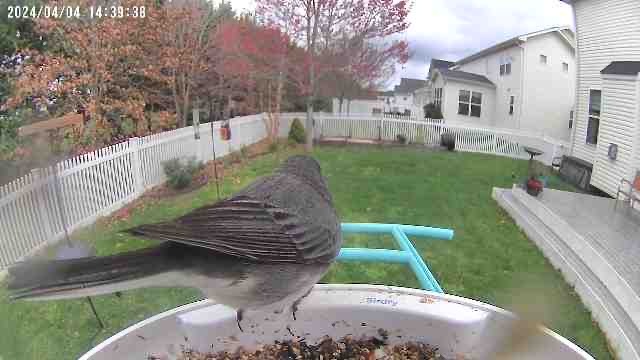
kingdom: Animalia
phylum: Chordata
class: Aves
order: Passeriformes
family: Passerellidae
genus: Junco
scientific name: Junco hyemalis
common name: Dark-eyed junco
